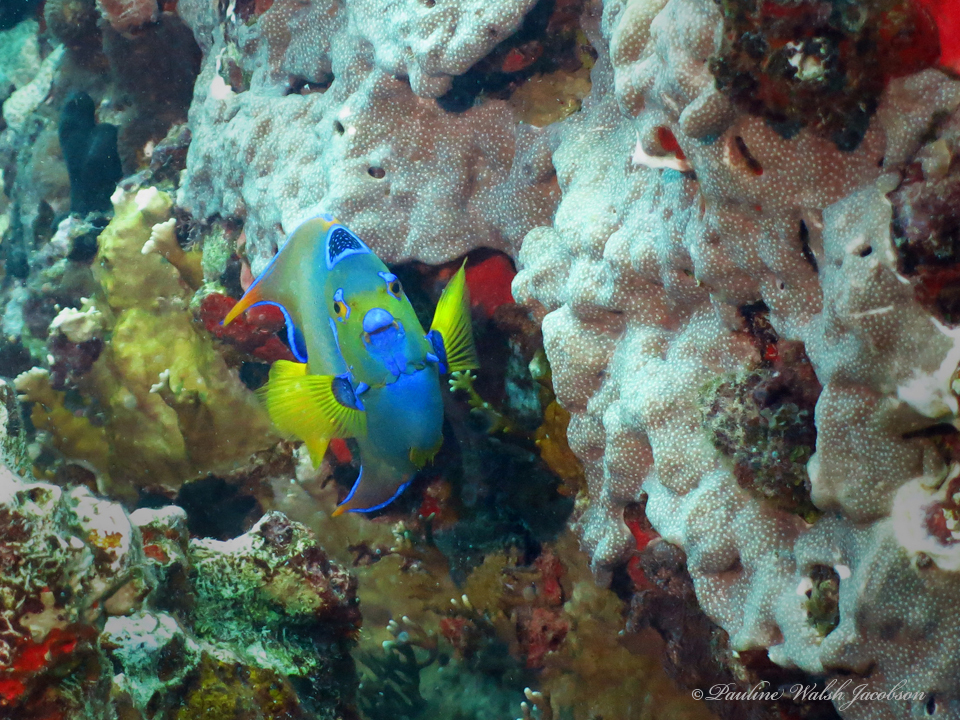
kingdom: Animalia
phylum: Chordata
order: Perciformes
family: Pomacanthidae
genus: Holacanthus
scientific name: Holacanthus ciliaris
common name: Queen angelfish
